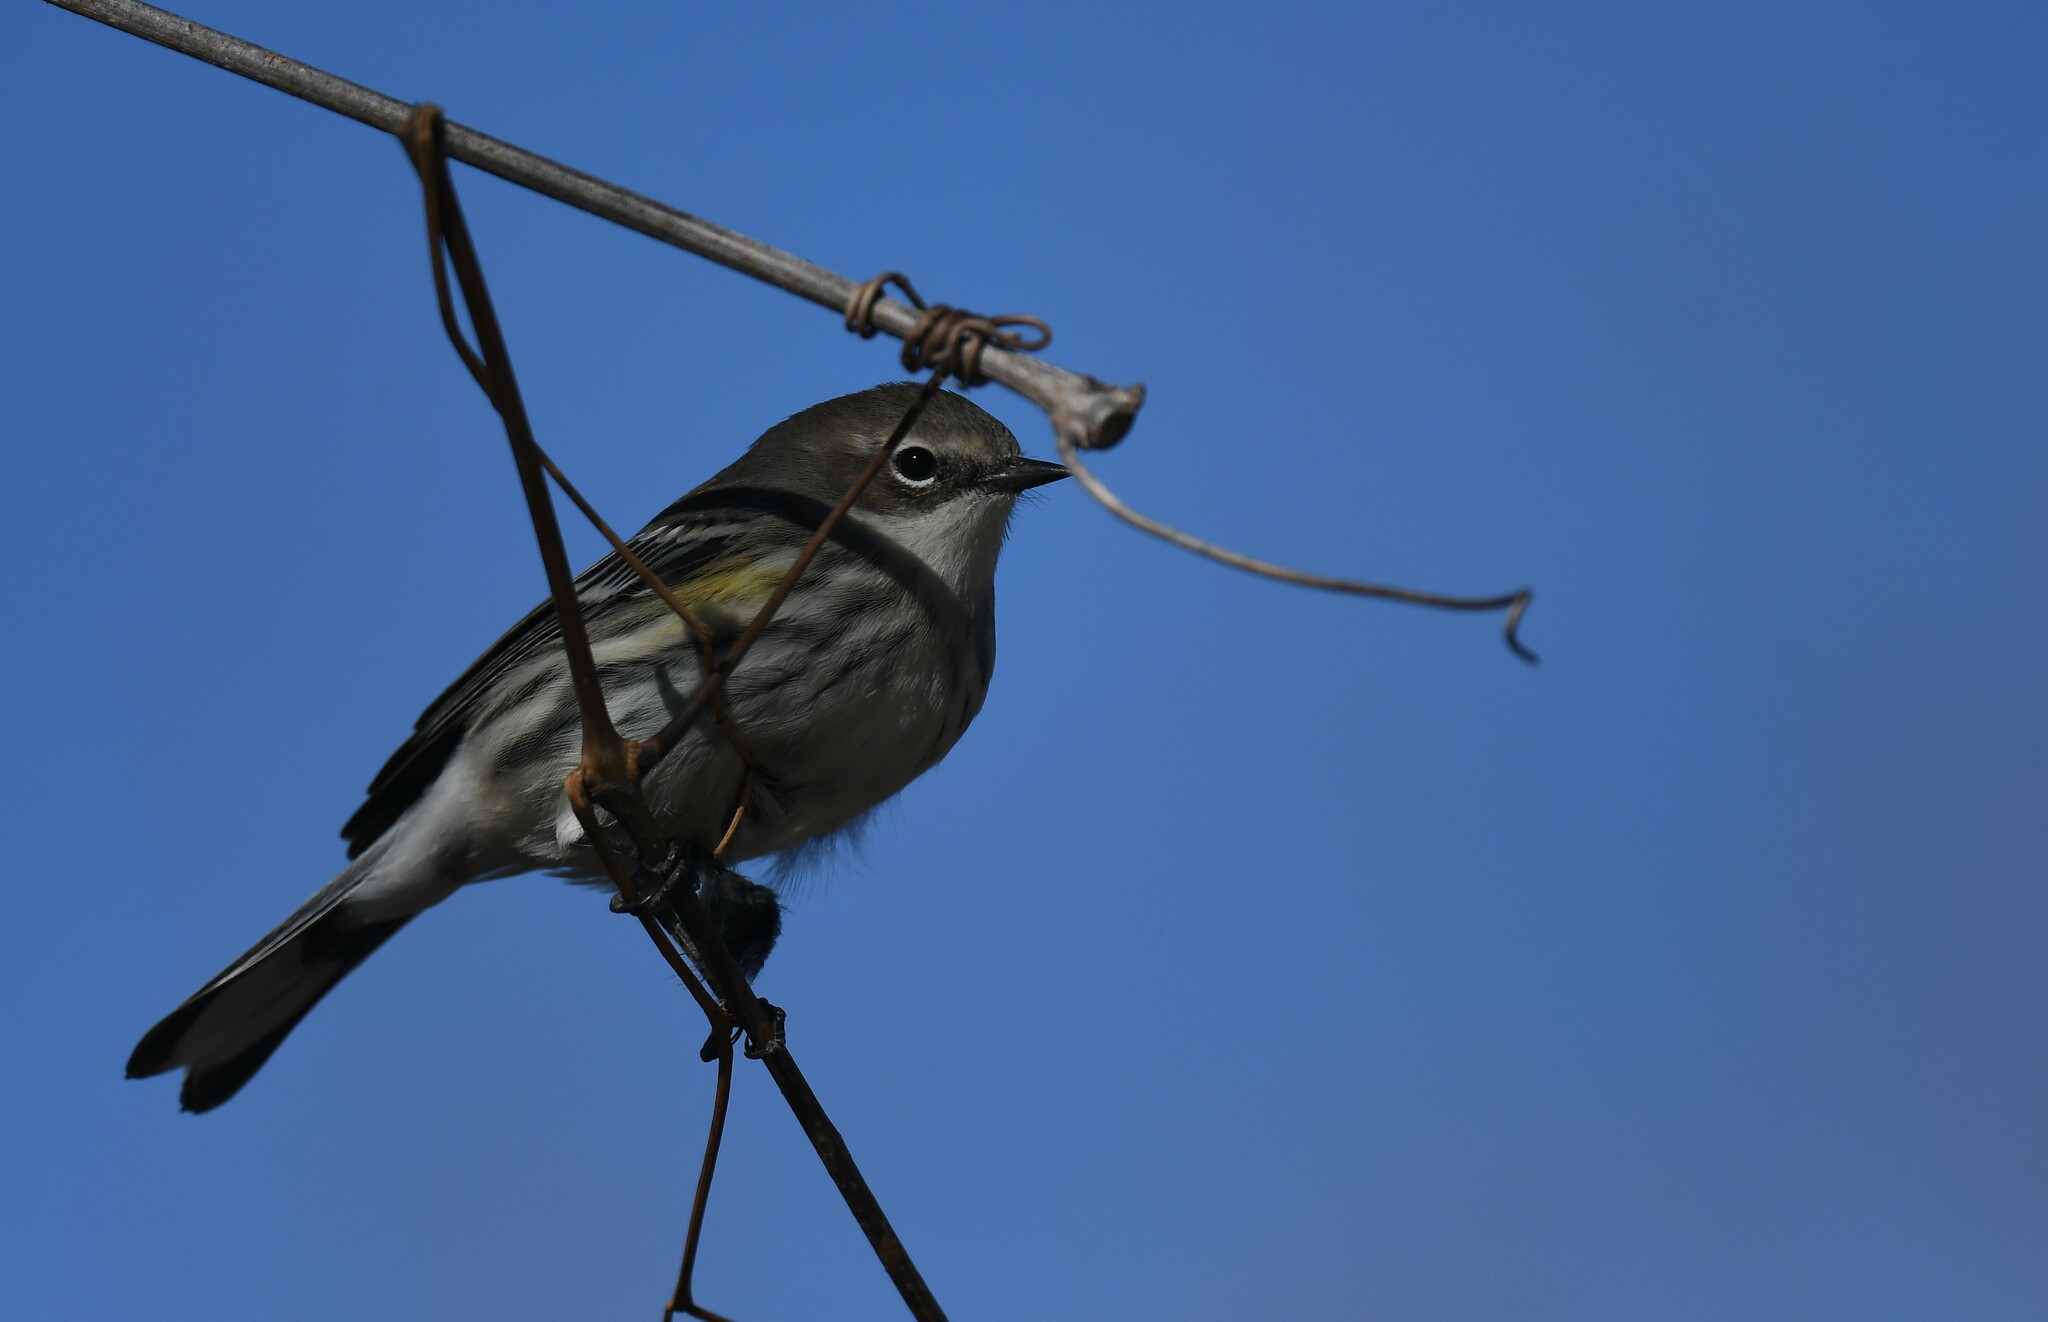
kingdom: Animalia
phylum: Chordata
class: Aves
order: Passeriformes
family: Parulidae
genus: Setophaga
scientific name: Setophaga coronata
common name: Myrtle warbler
